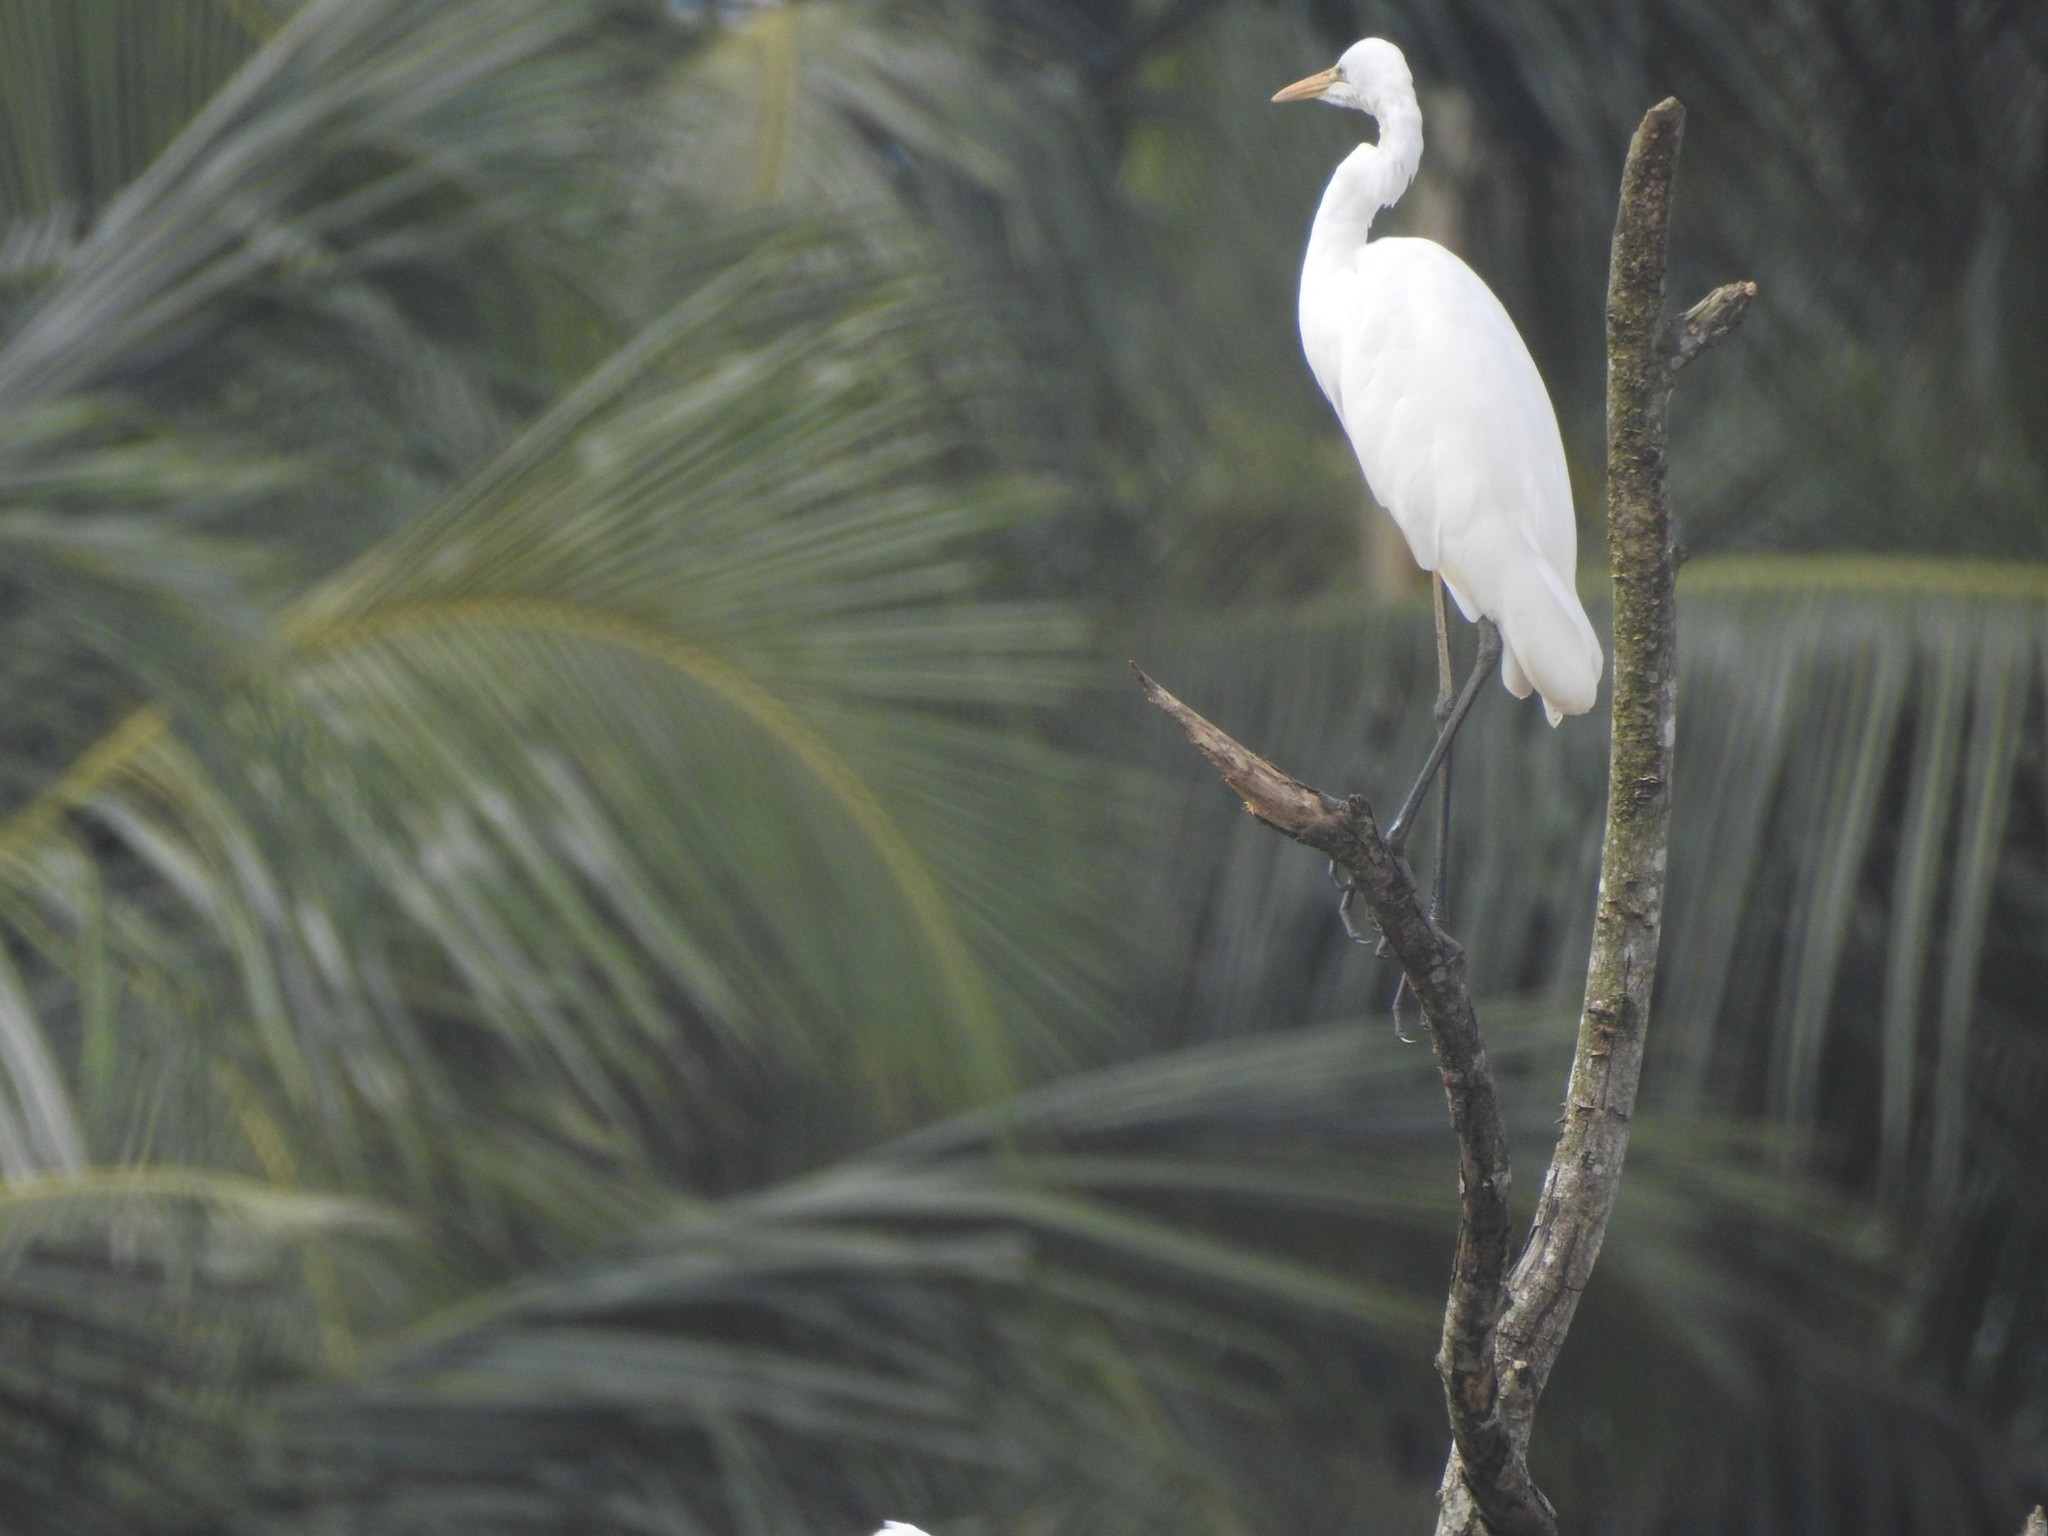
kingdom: Animalia
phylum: Chordata
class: Aves
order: Pelecaniformes
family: Ardeidae
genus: Ardea
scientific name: Ardea alba
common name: Great egret
